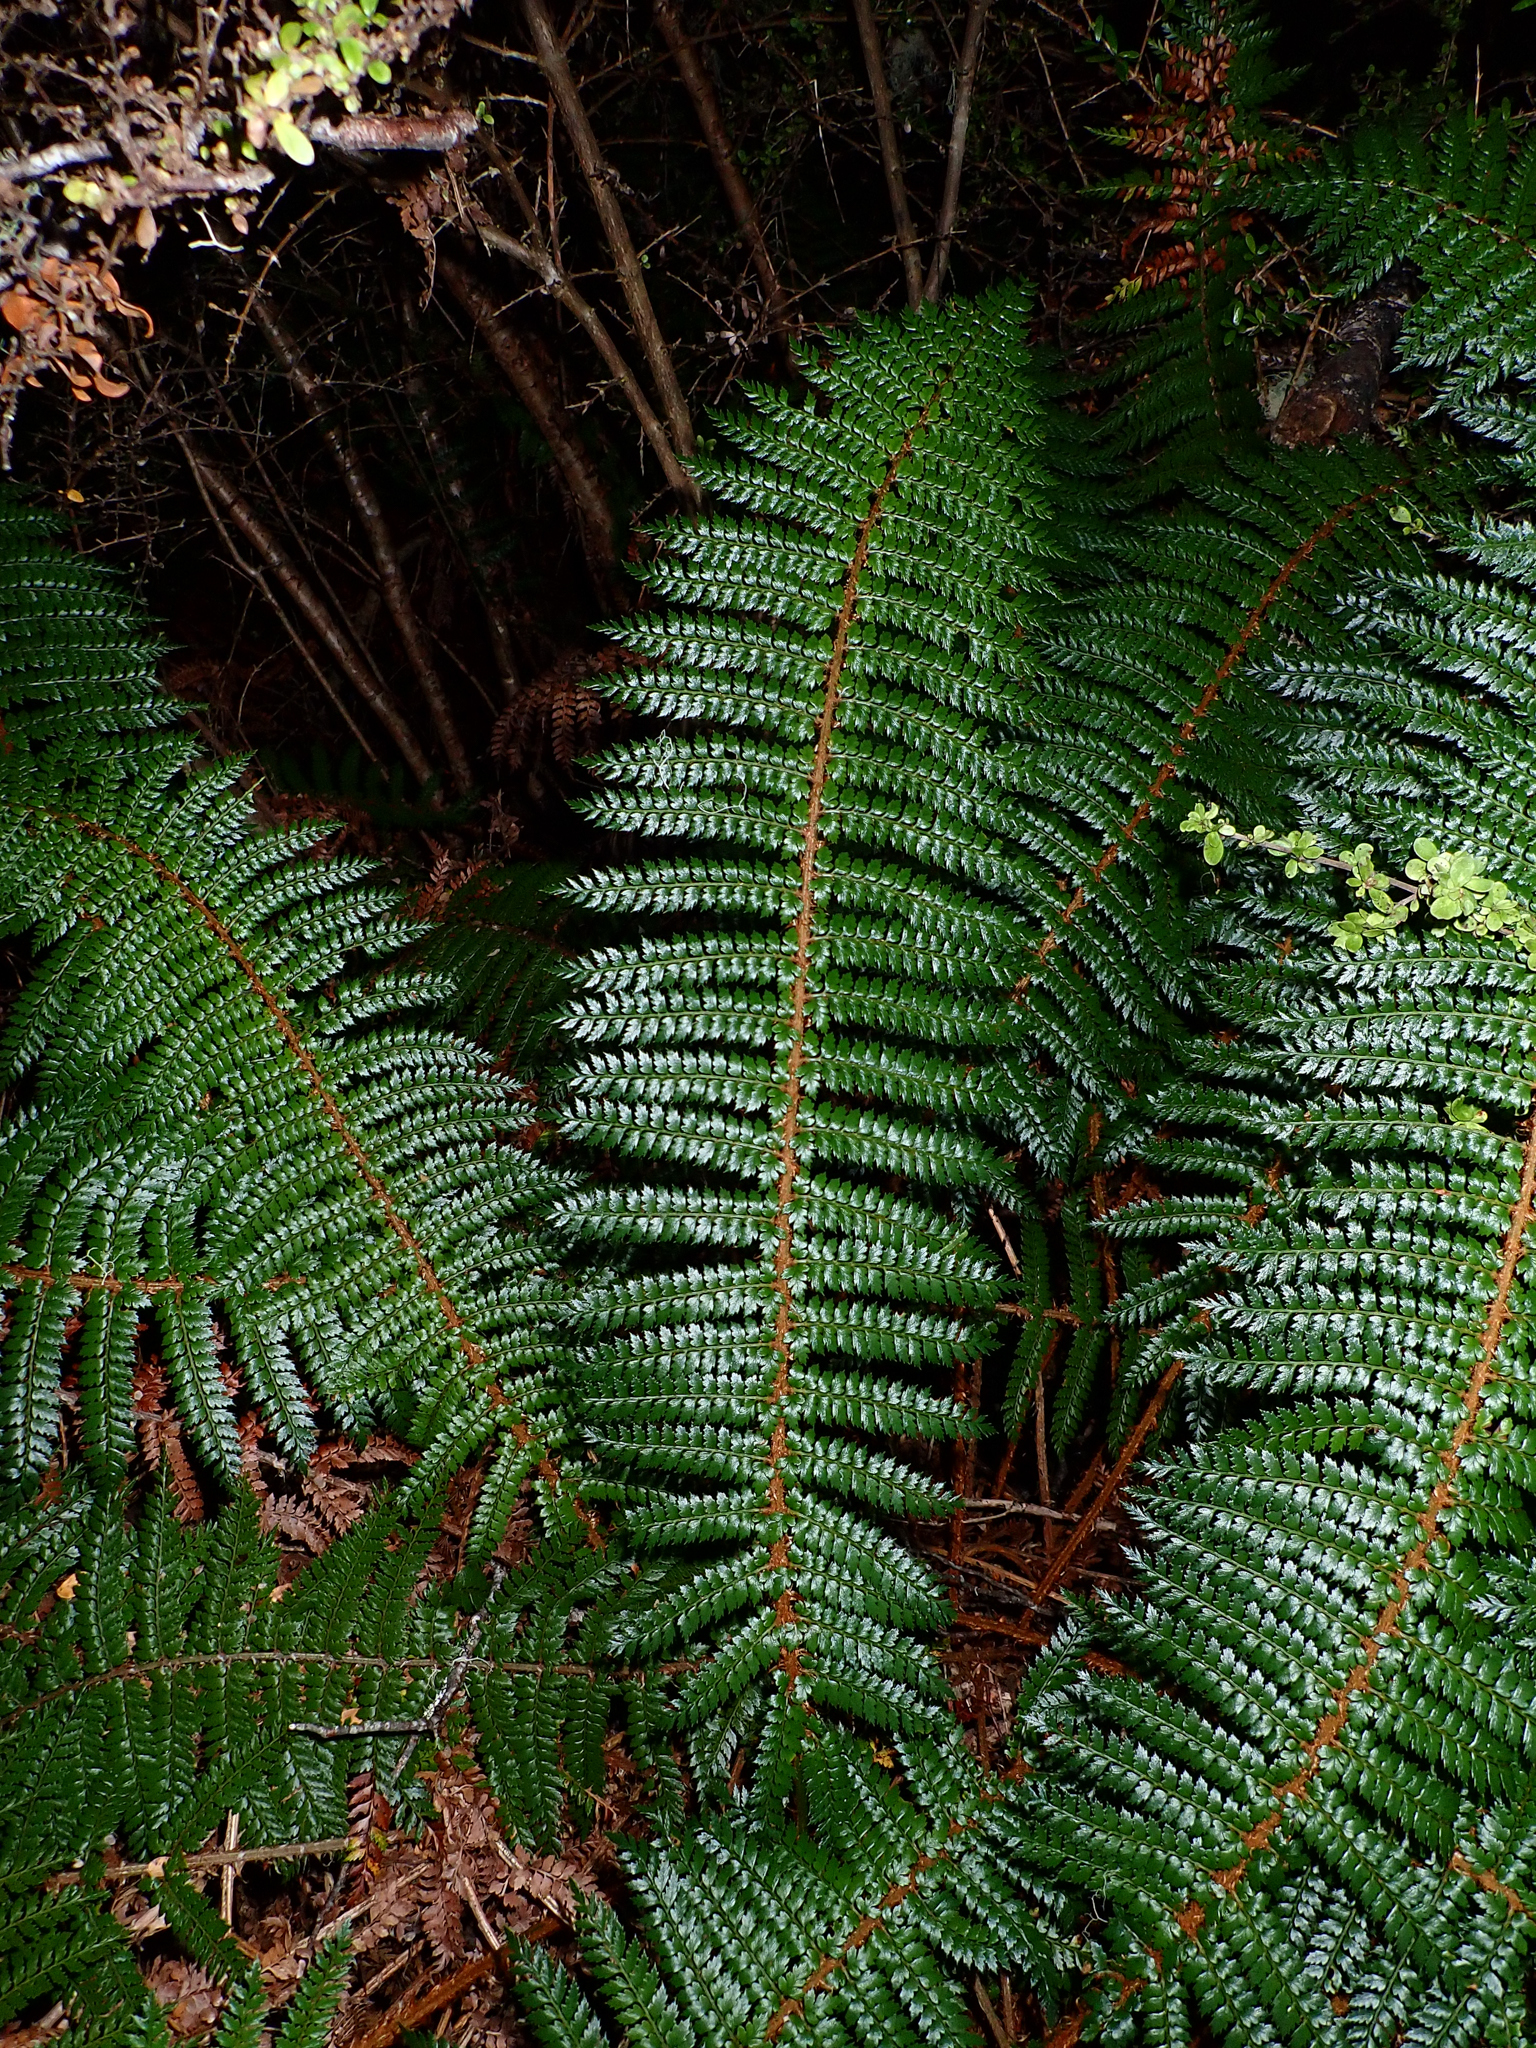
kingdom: Plantae
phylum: Tracheophyta
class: Polypodiopsida
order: Polypodiales
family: Dryopteridaceae
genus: Polystichum
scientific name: Polystichum vestitum
